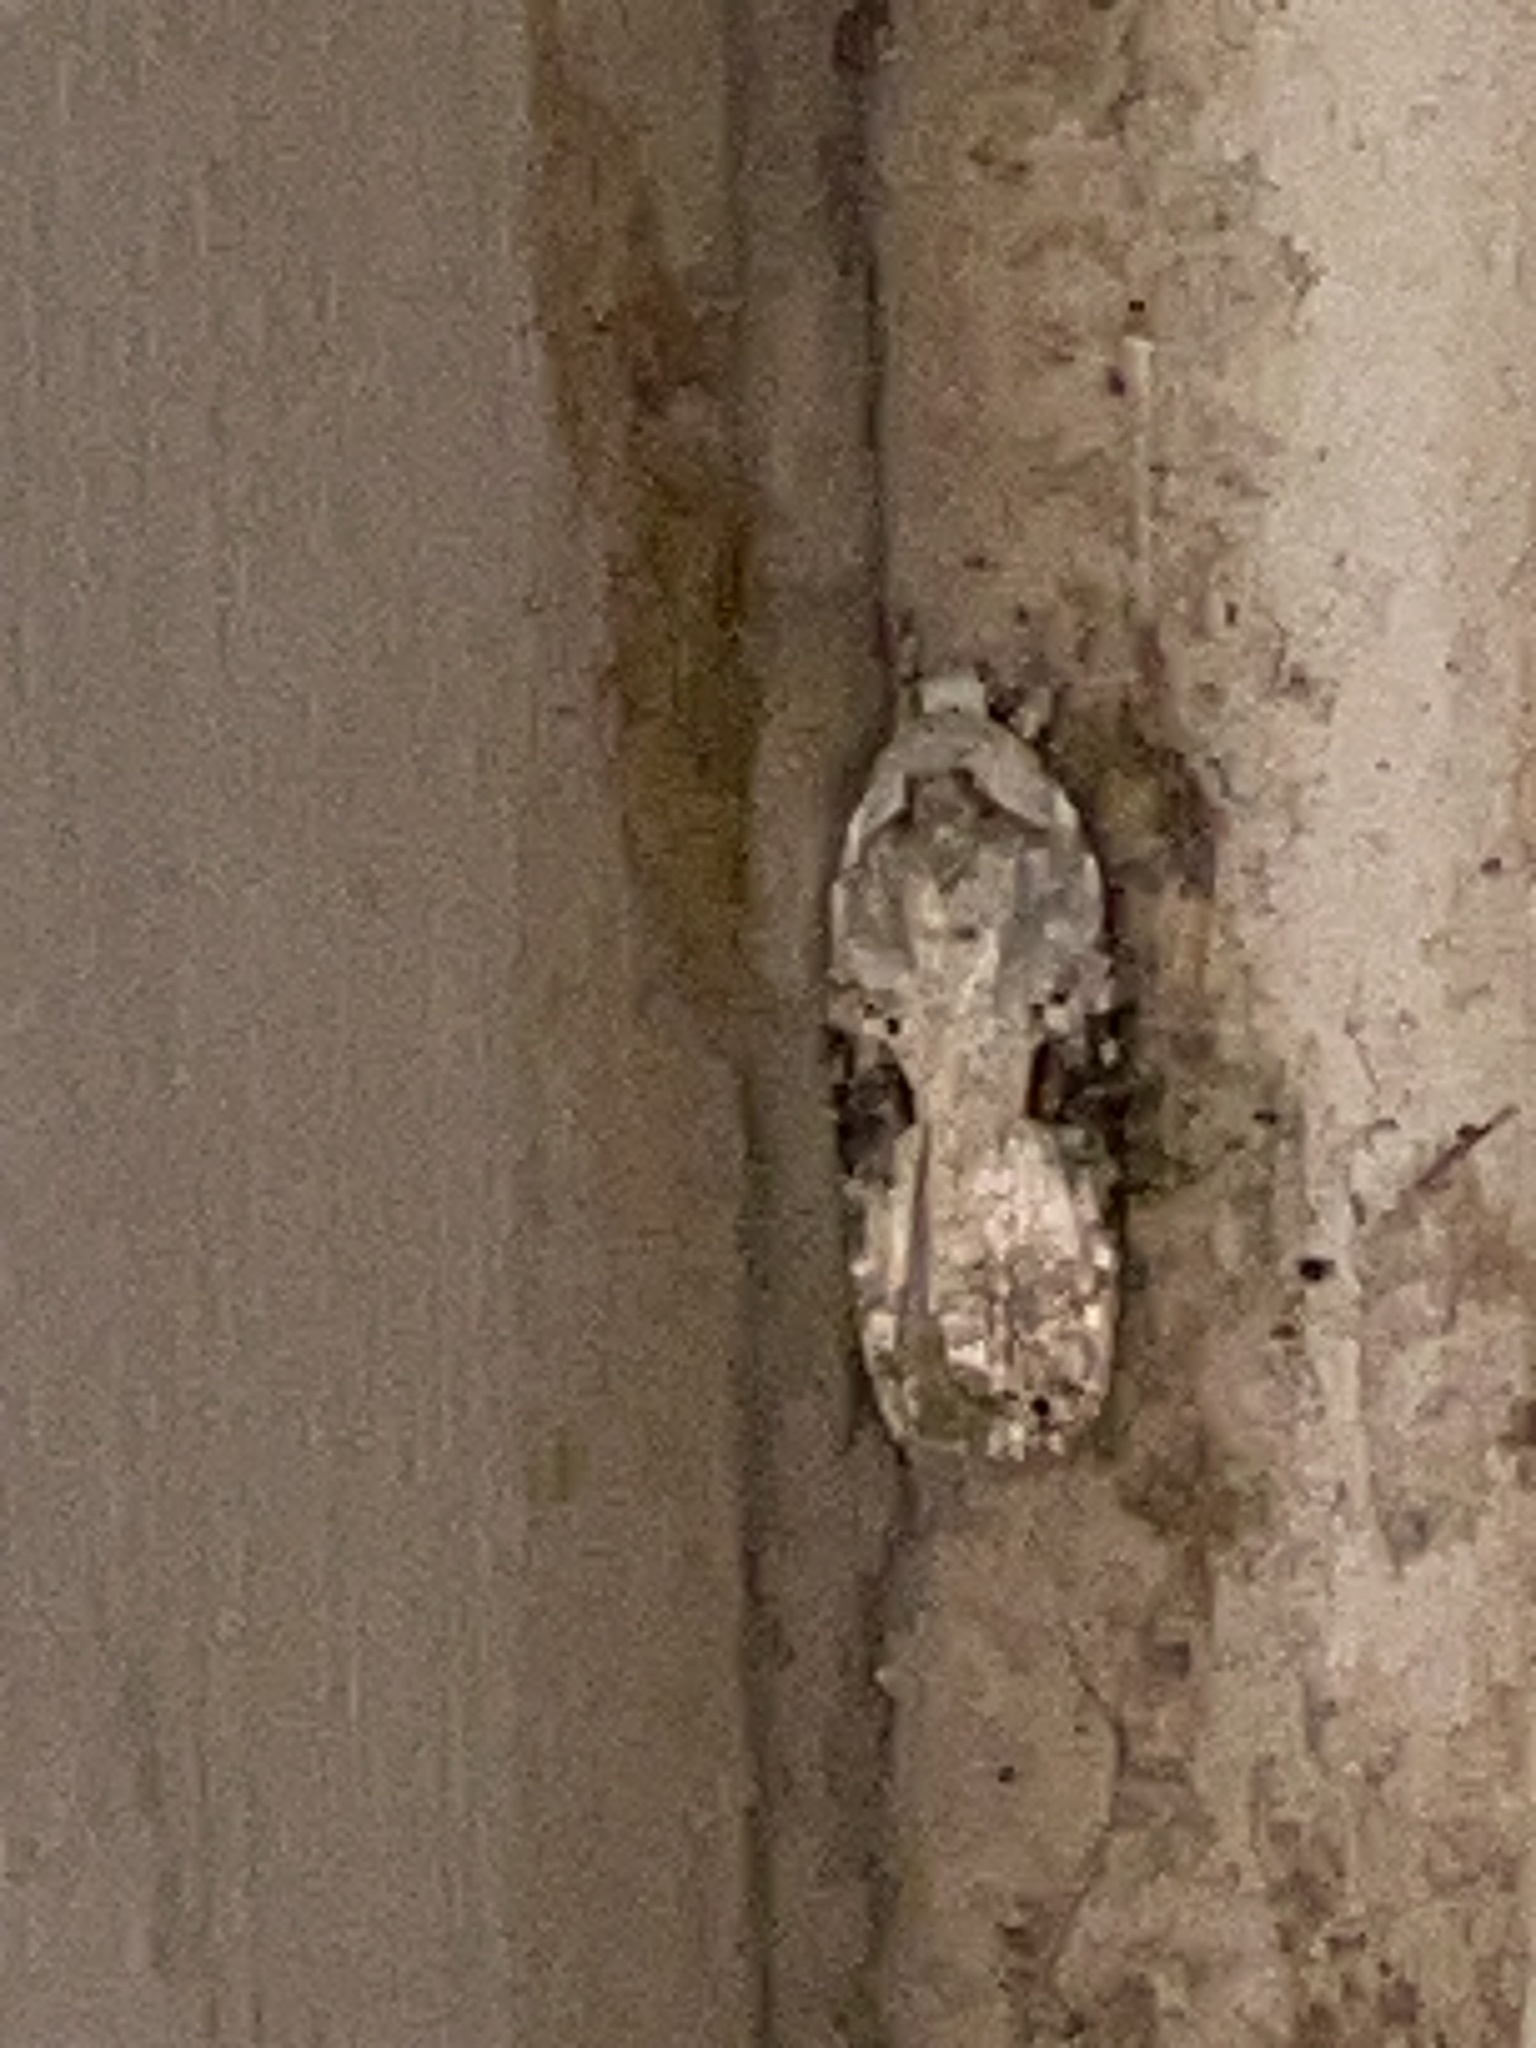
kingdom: Animalia
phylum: Arthropoda
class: Insecta
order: Lepidoptera
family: Depressariidae
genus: Agonopterix
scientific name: Agonopterix alstroemeriana
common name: Moth
